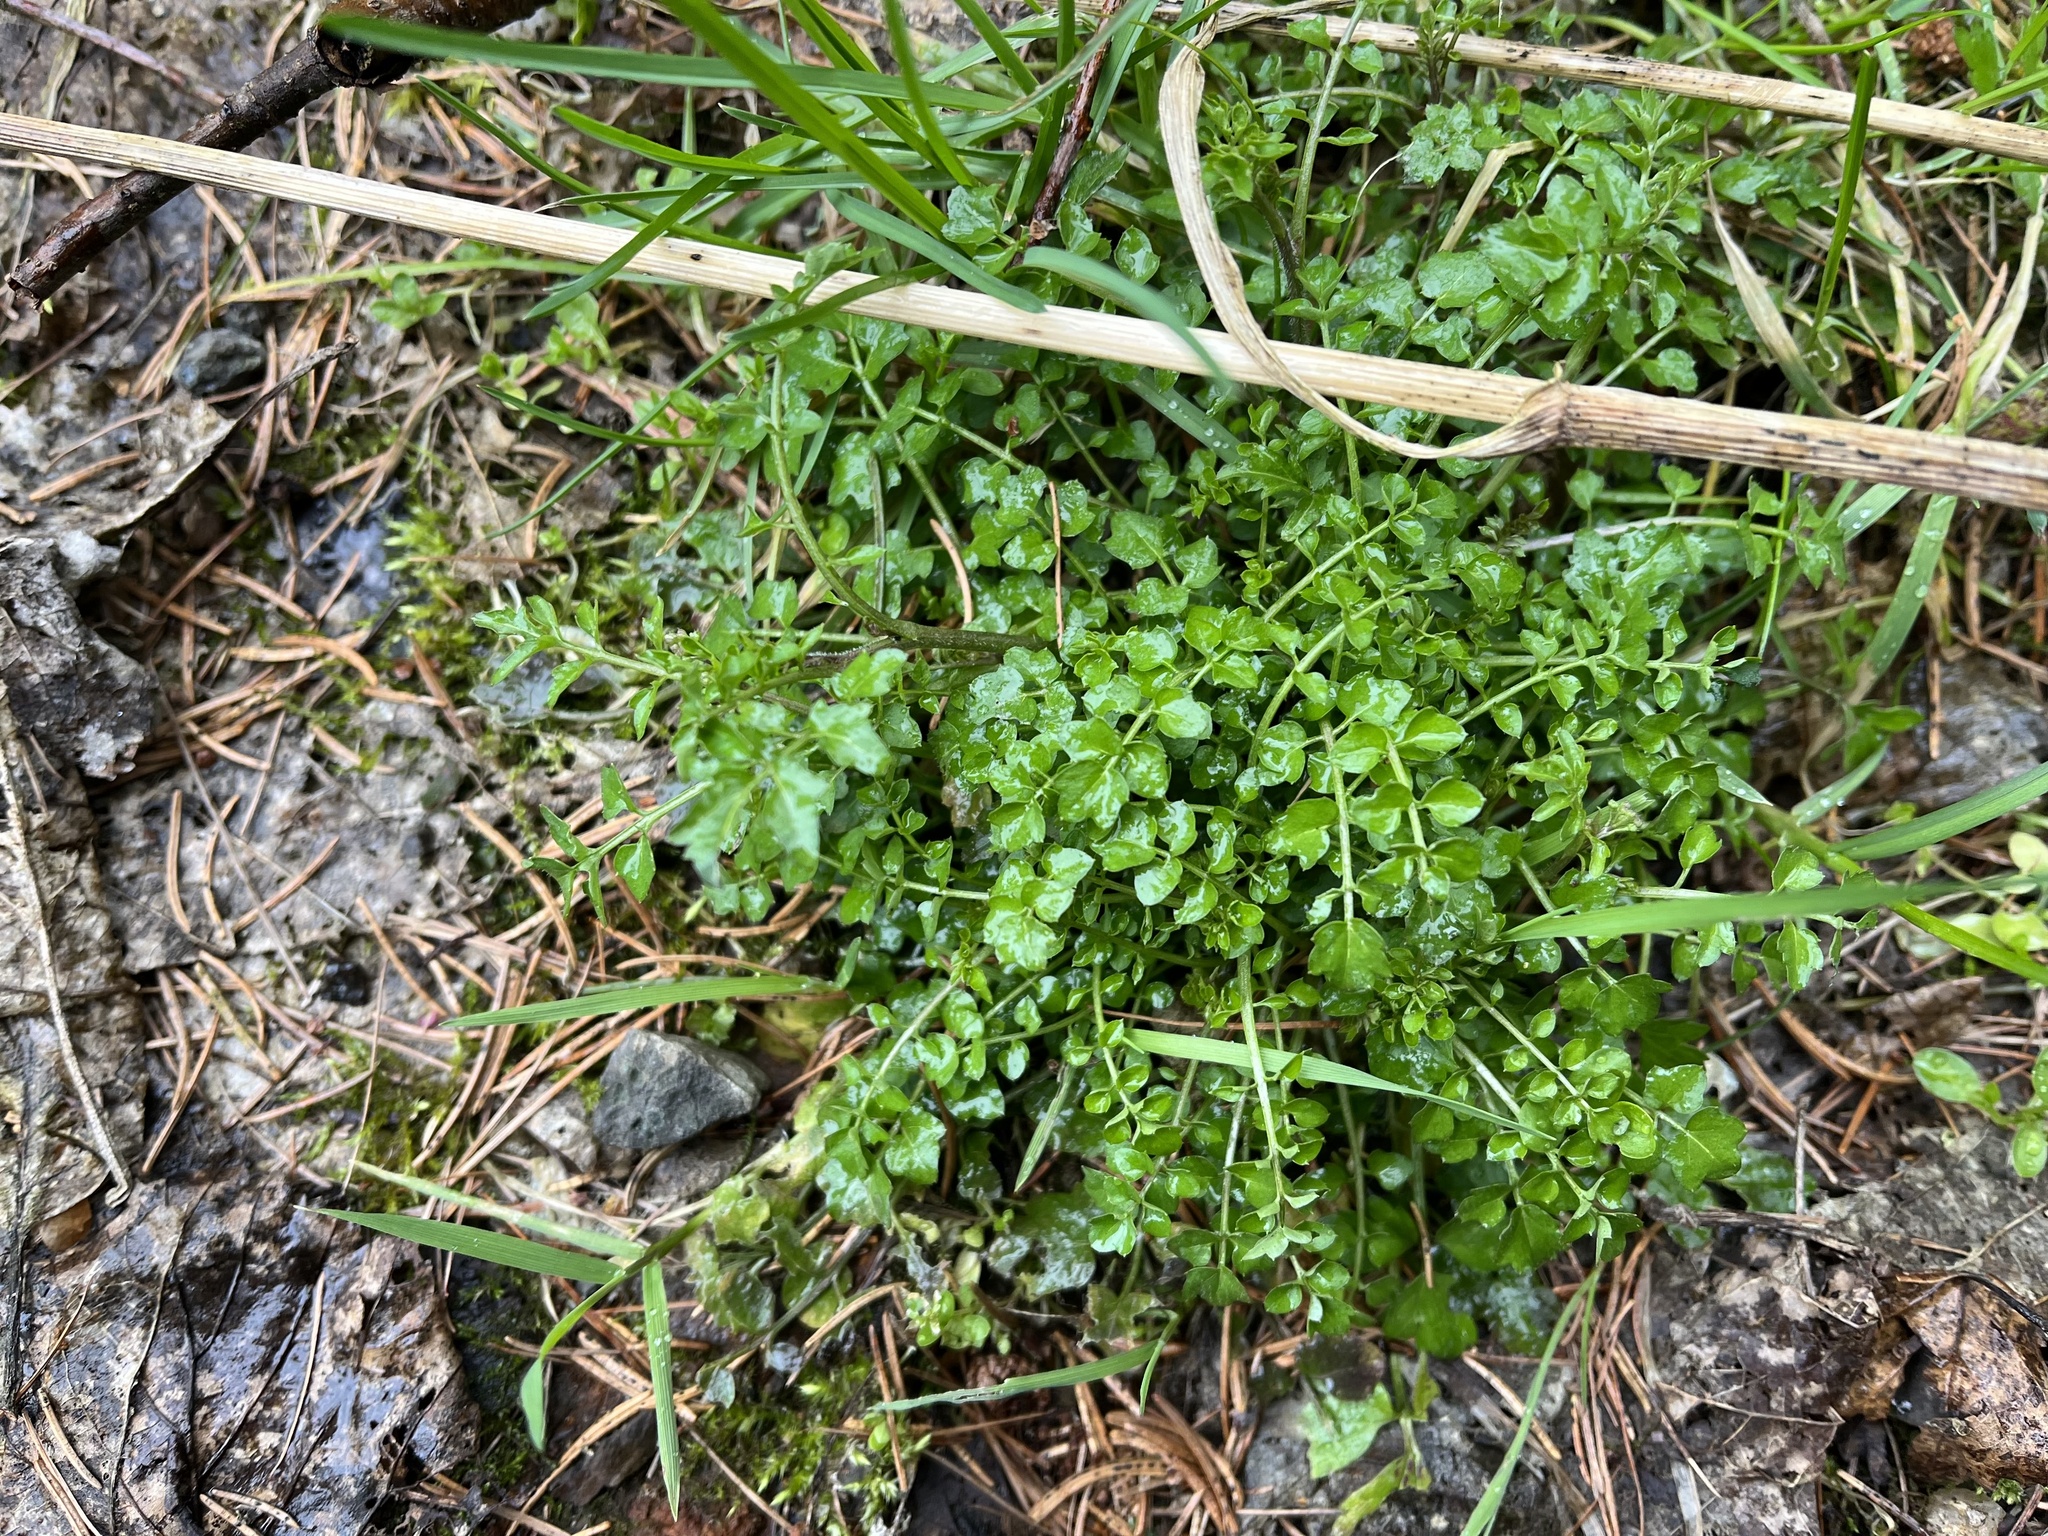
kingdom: Plantae
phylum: Tracheophyta
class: Magnoliopsida
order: Brassicales
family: Brassicaceae
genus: Cardamine
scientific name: Cardamine flexuosa
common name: Woodland bittercress
